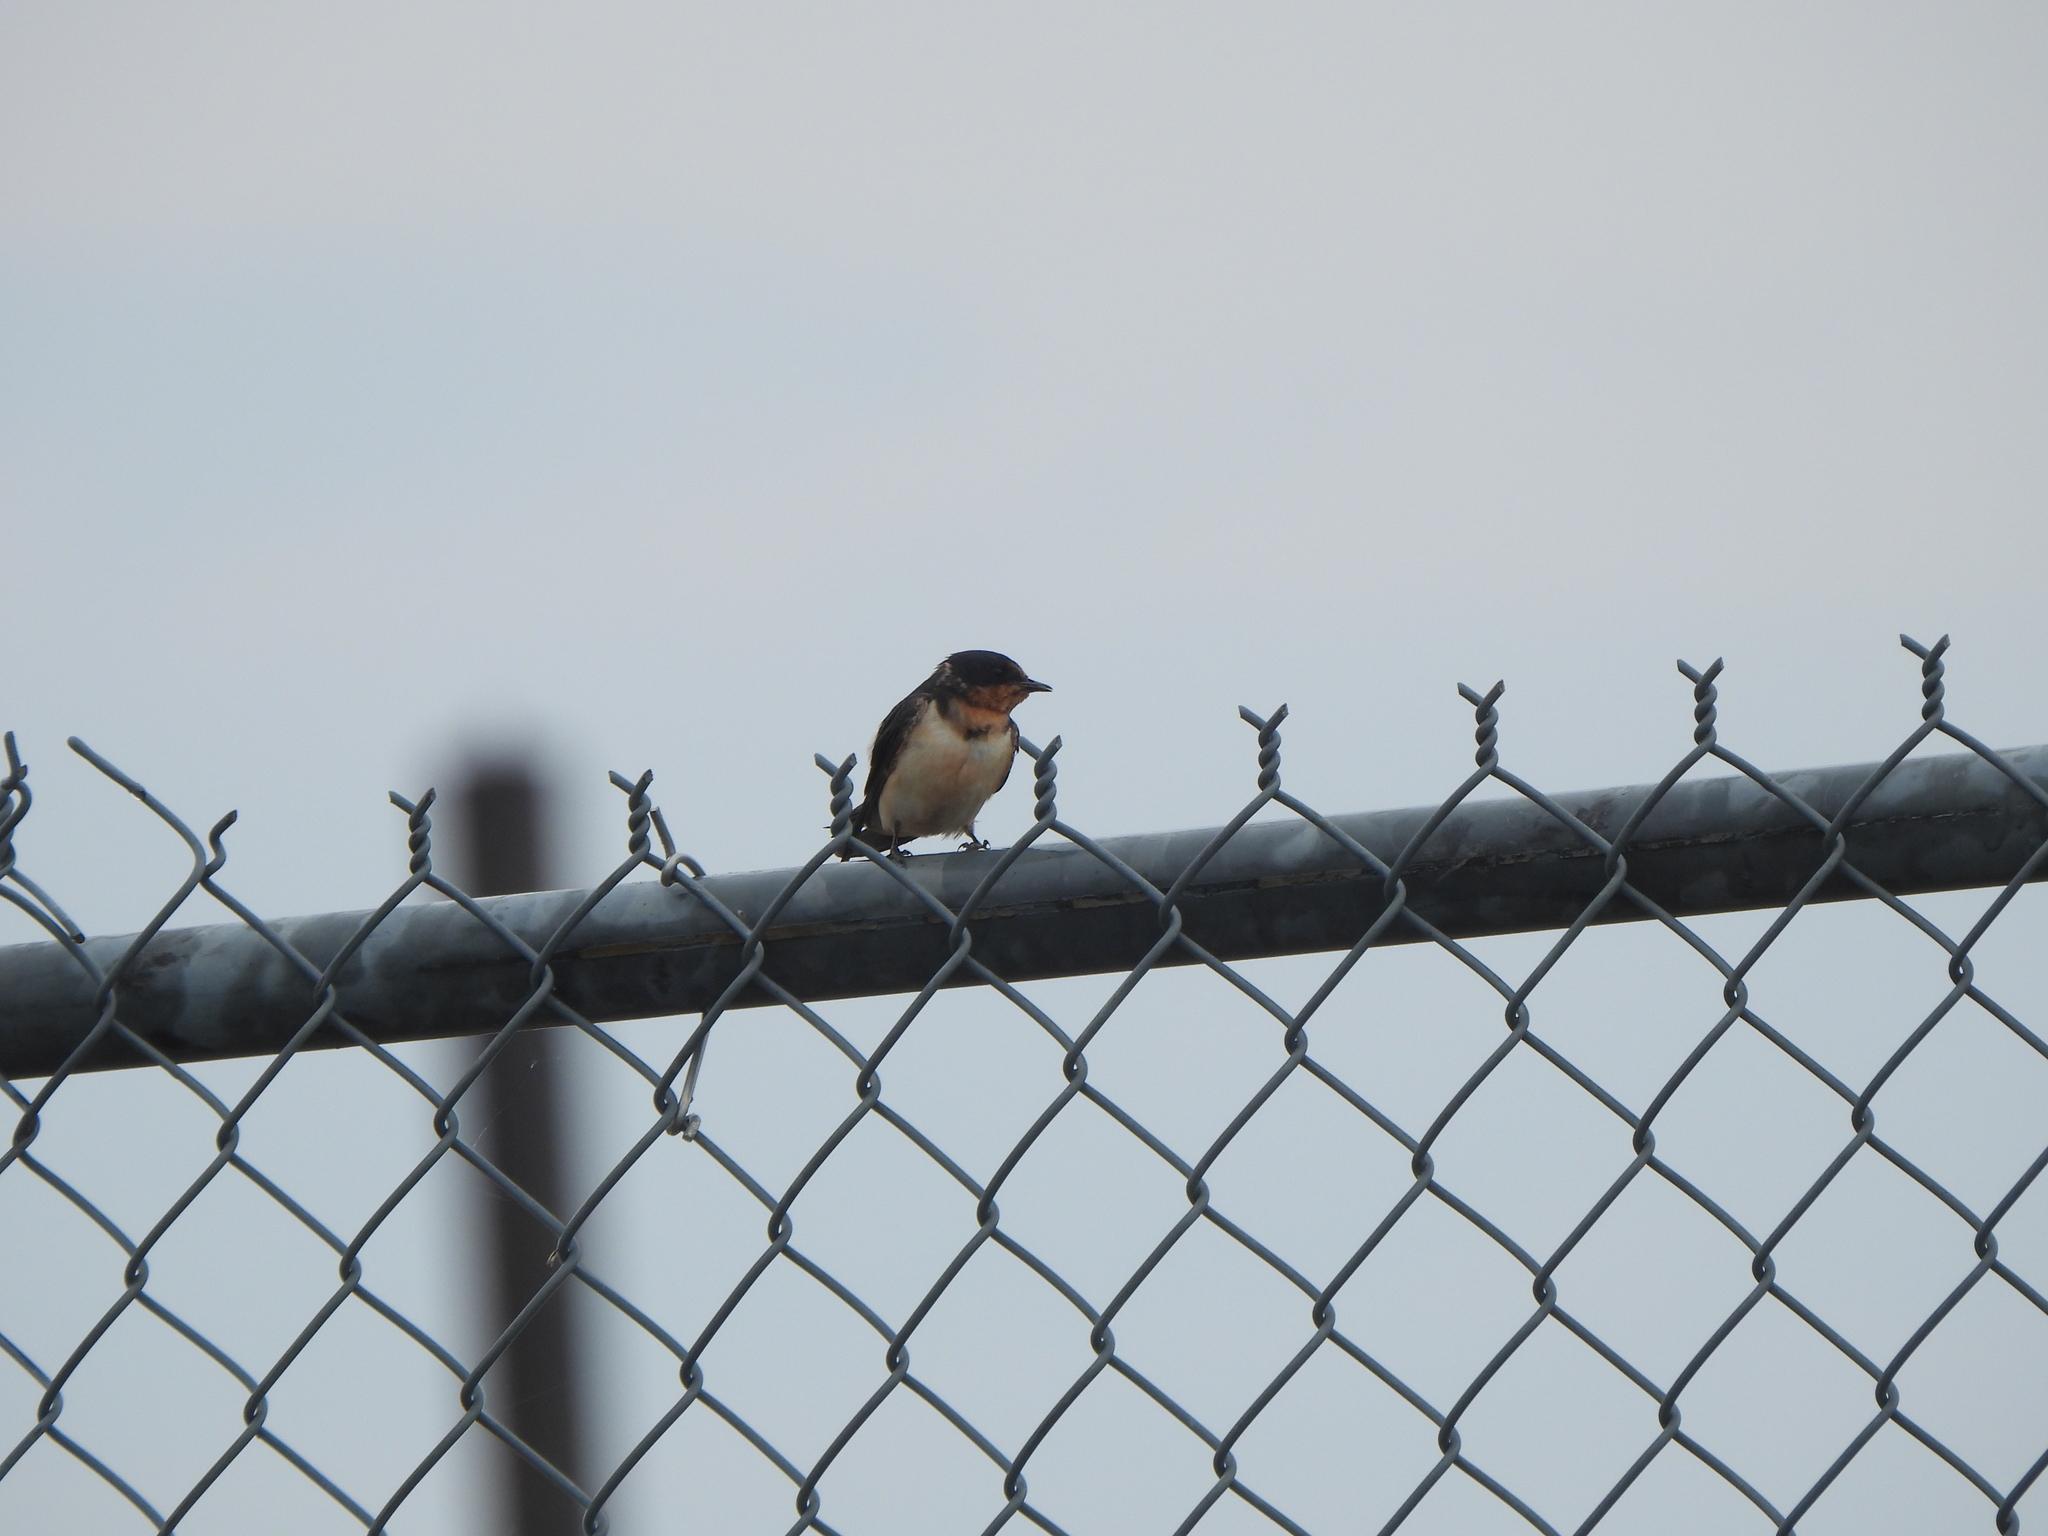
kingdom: Animalia
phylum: Chordata
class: Aves
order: Passeriformes
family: Hirundinidae
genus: Hirundo
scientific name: Hirundo rustica
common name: Barn swallow
